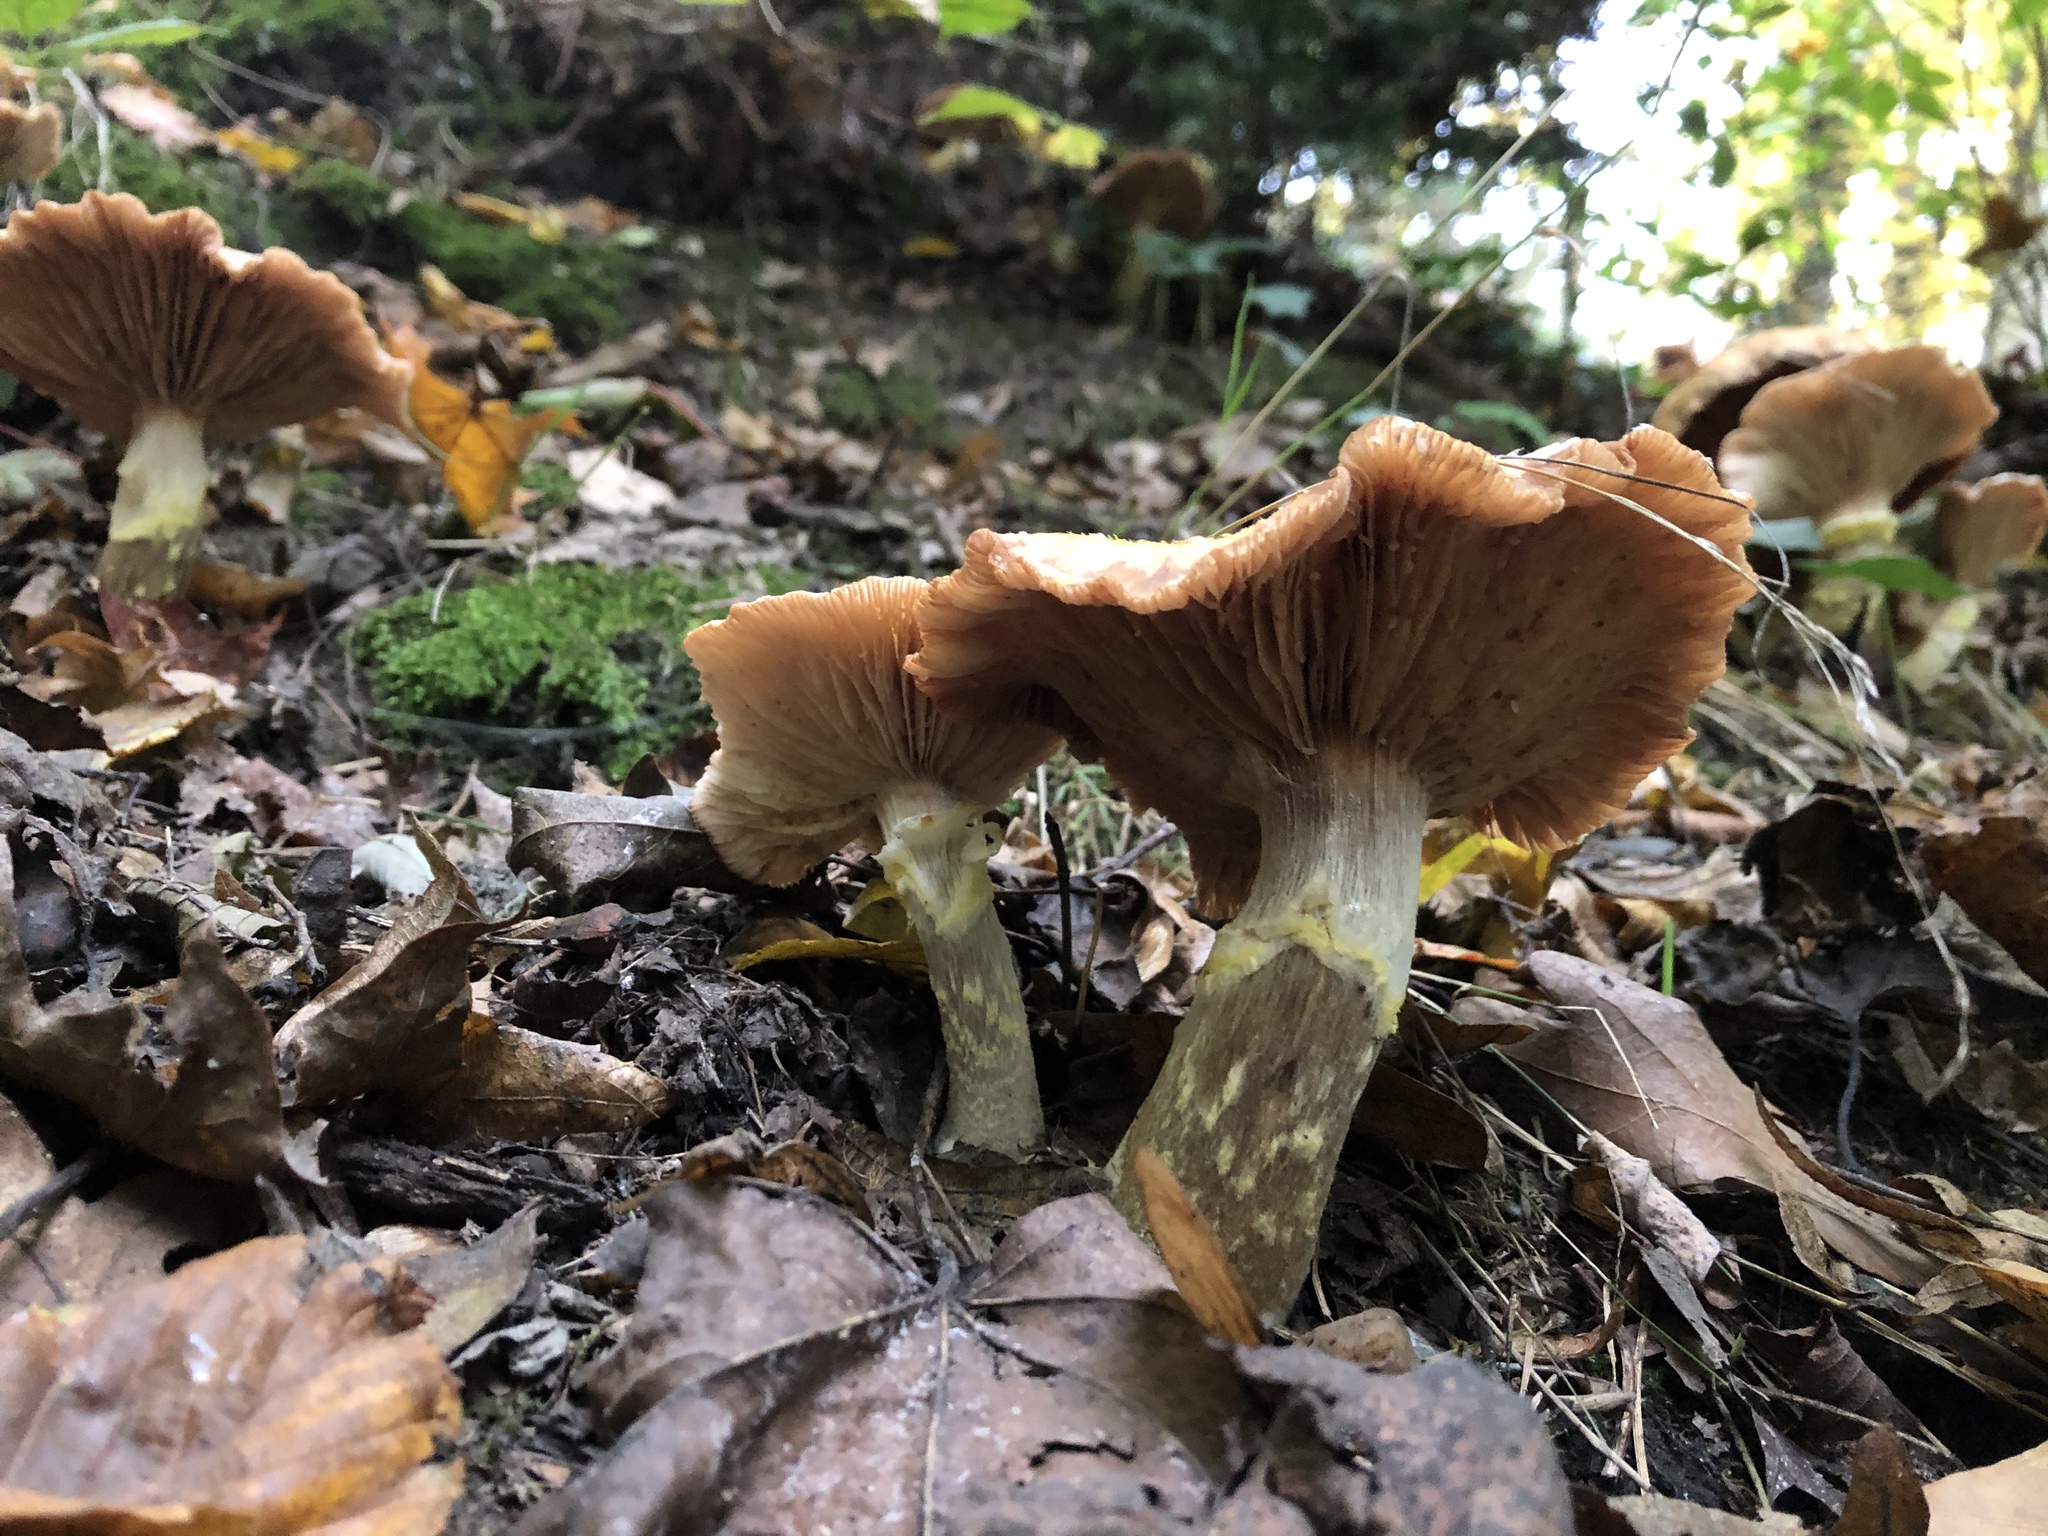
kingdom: Fungi
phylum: Basidiomycota
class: Agaricomycetes
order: Agaricales
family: Physalacriaceae
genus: Armillaria
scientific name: Armillaria mellea
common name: Honey fungus
